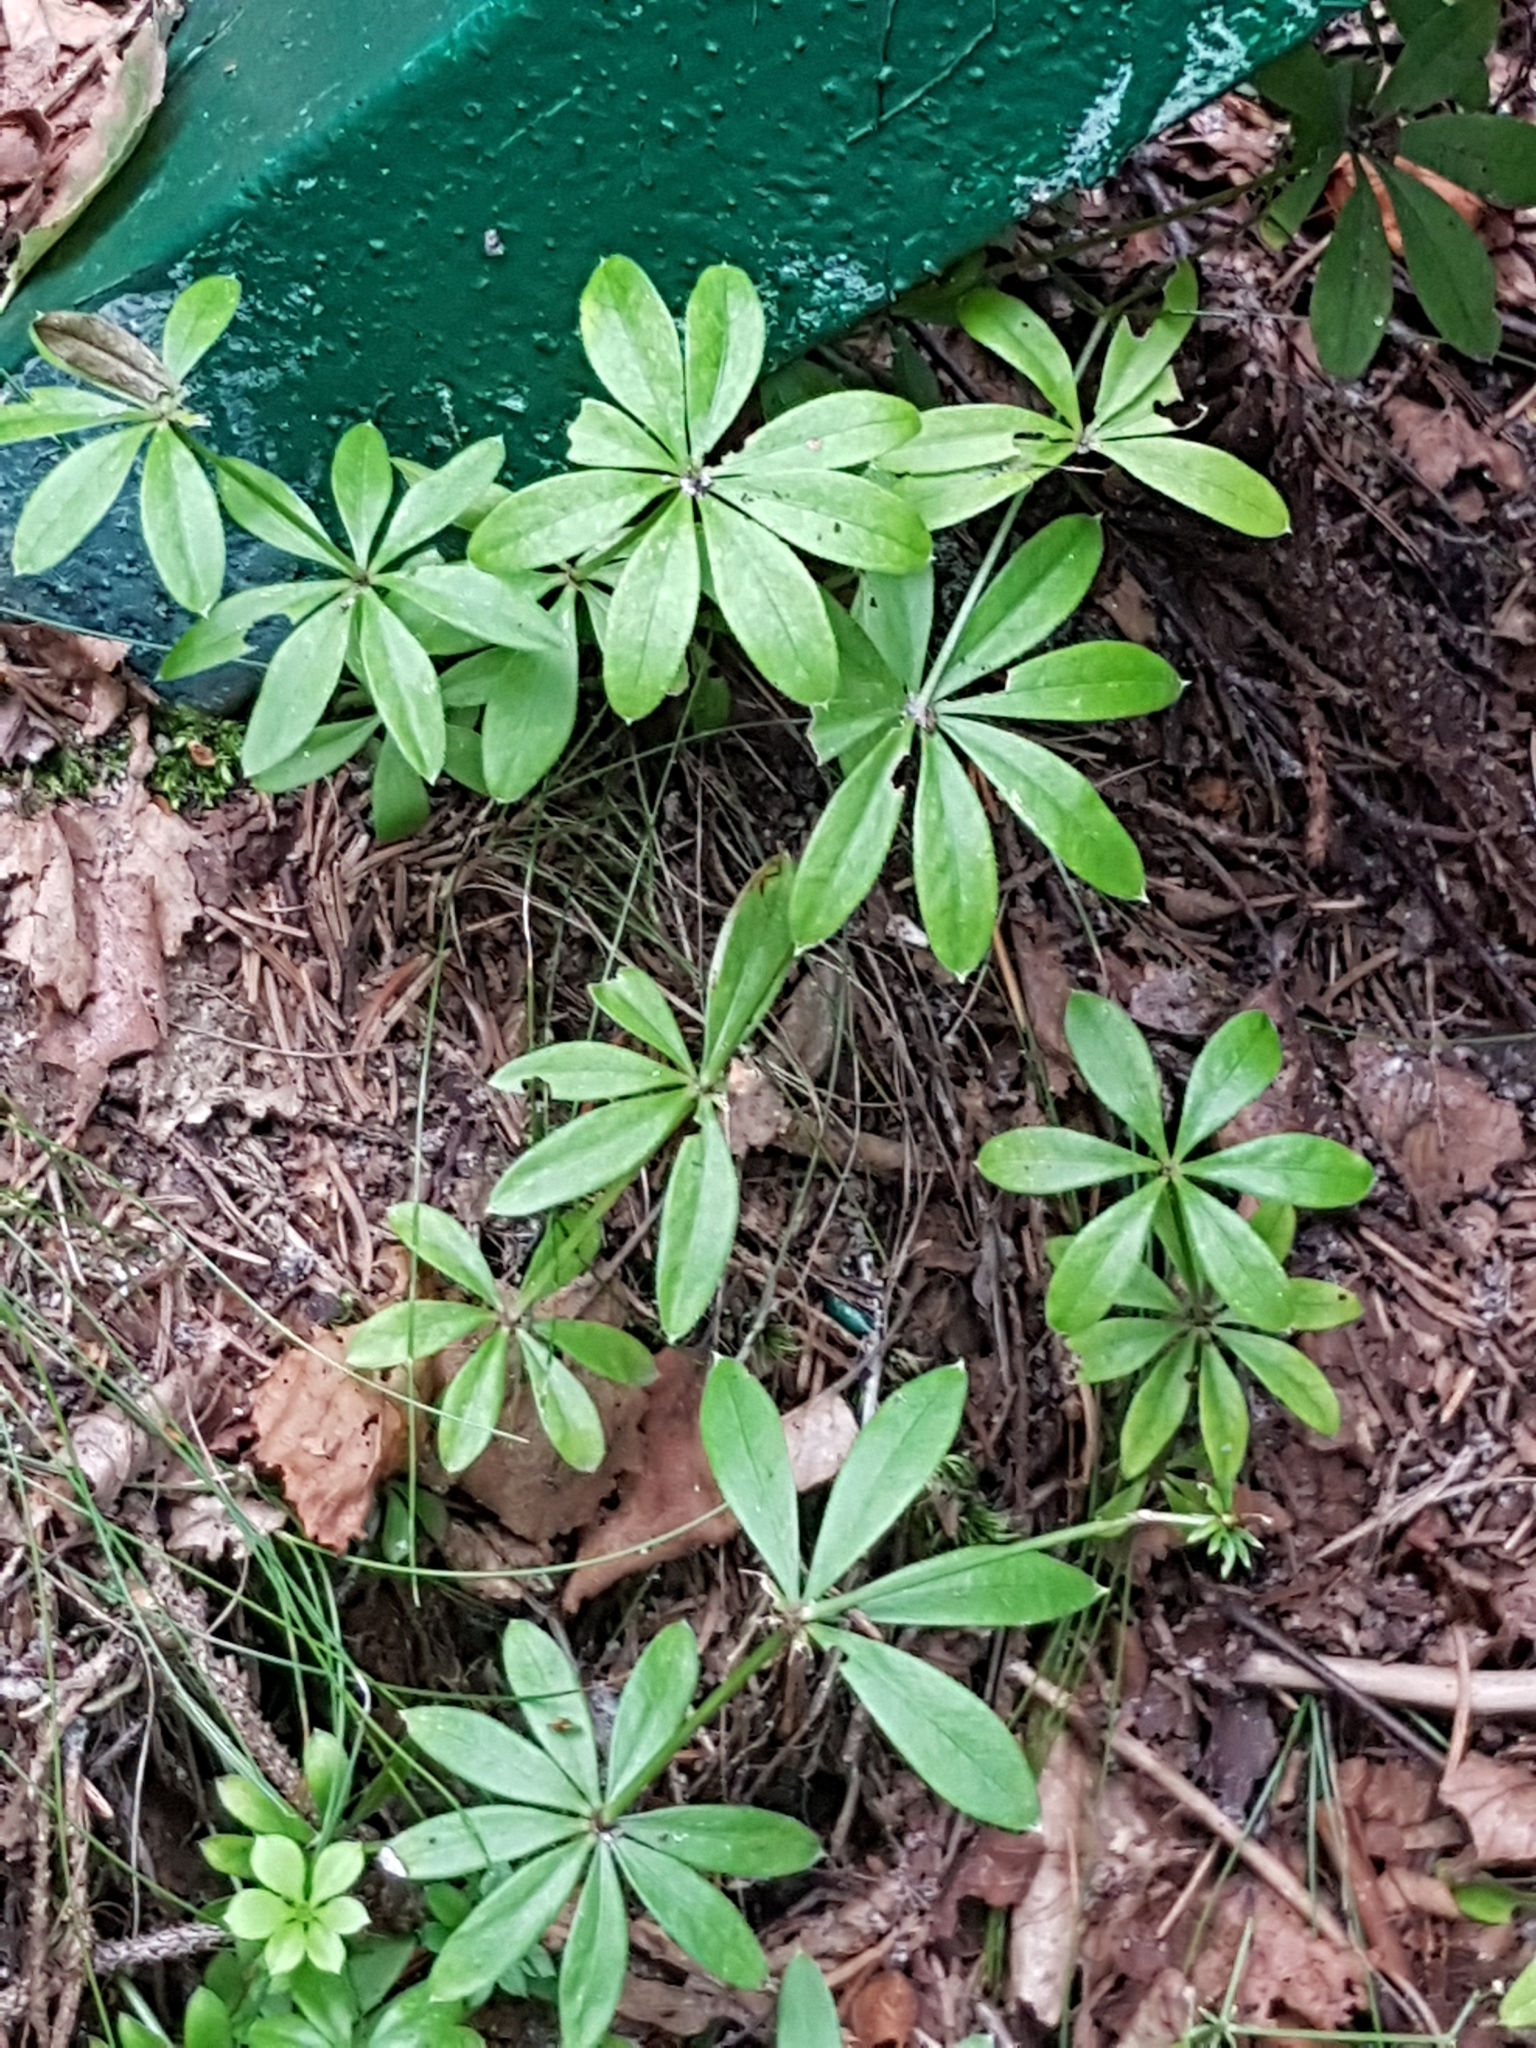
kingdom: Plantae
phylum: Tracheophyta
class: Magnoliopsida
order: Gentianales
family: Rubiaceae
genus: Galium
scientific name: Galium odoratum
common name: Sweet woodruff
